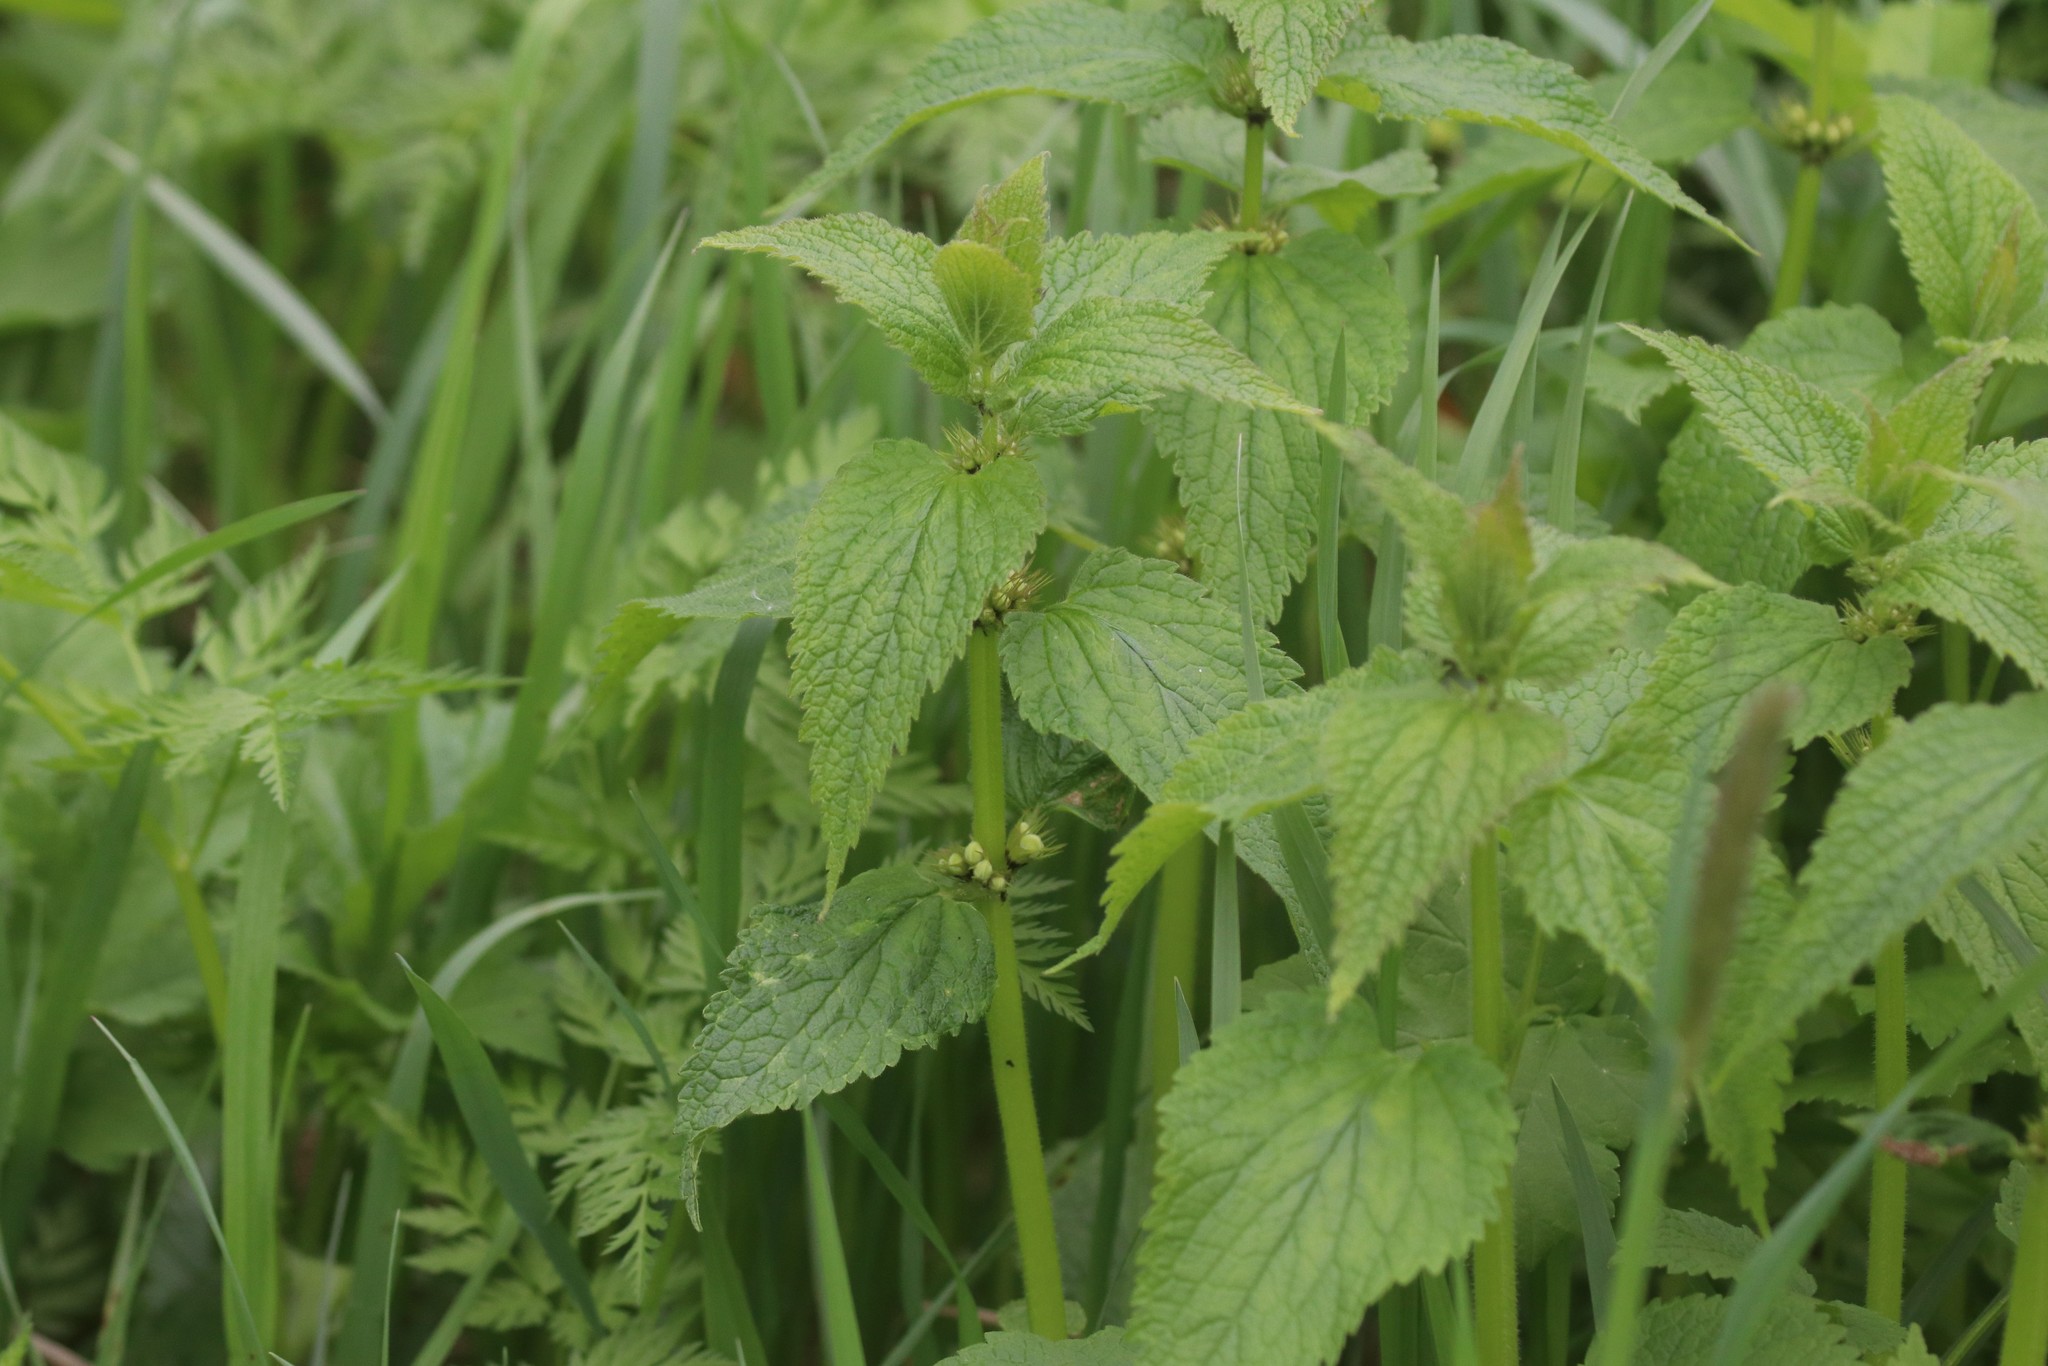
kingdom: Plantae
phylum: Tracheophyta
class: Magnoliopsida
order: Lamiales
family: Lamiaceae
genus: Lamium
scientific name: Lamium album
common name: White dead-nettle
